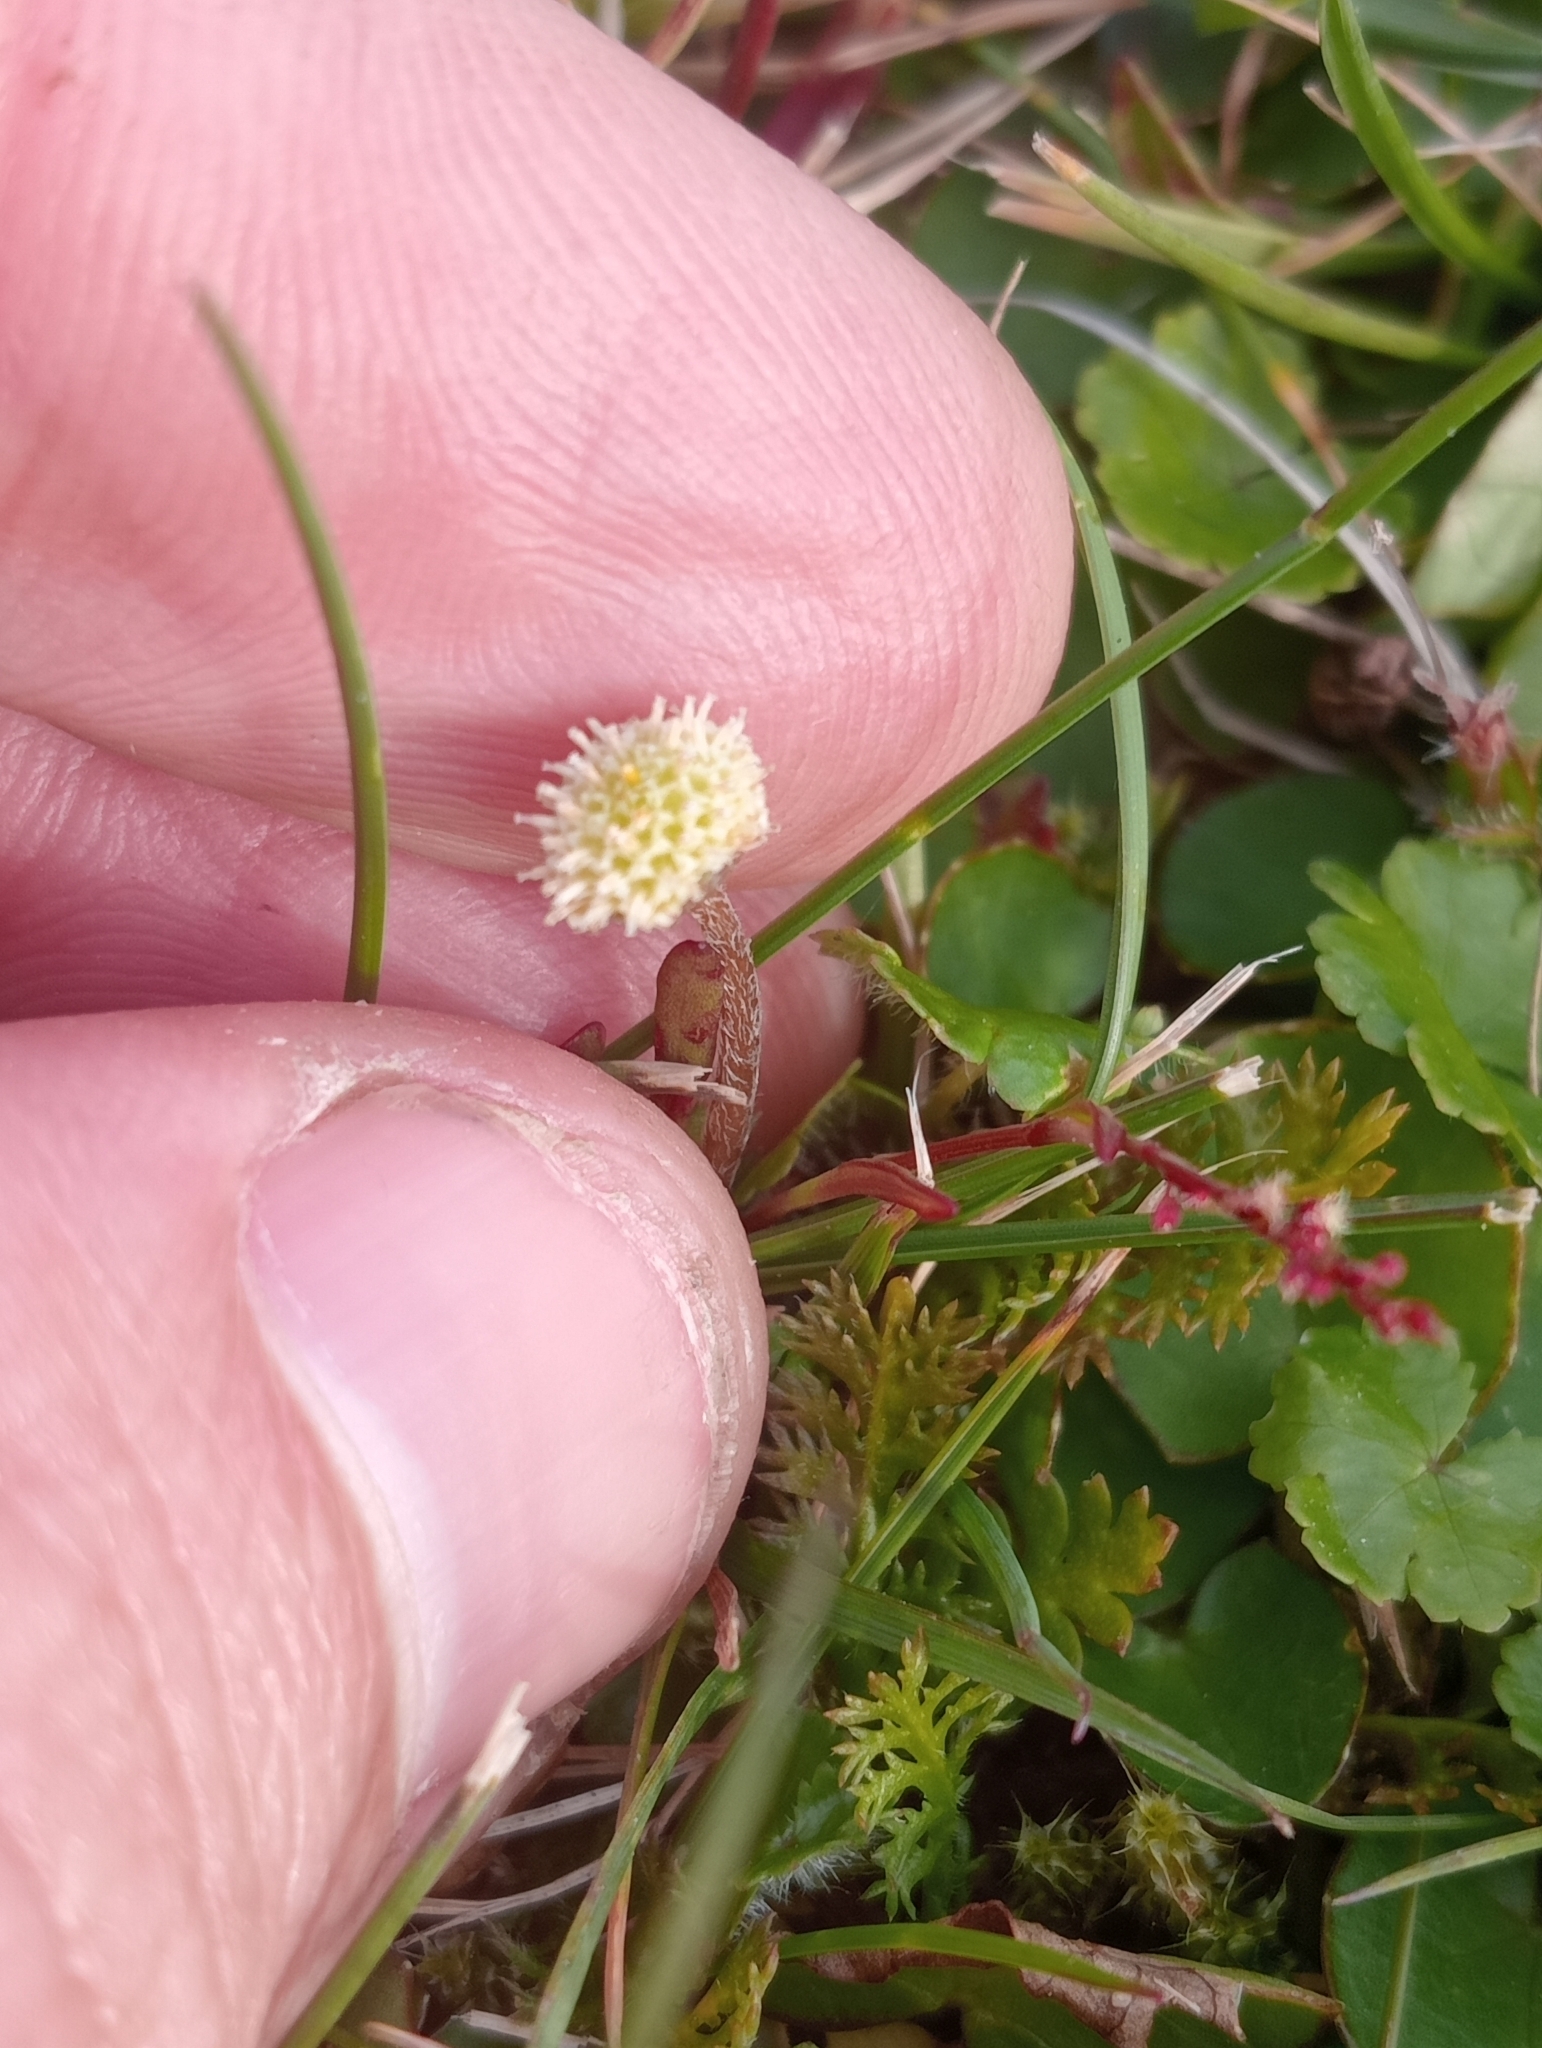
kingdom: Plantae
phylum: Tracheophyta
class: Magnoliopsida
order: Asterales
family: Asteraceae
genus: Leptinella
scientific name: Leptinella squalida
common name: New zealand brass-buttons
